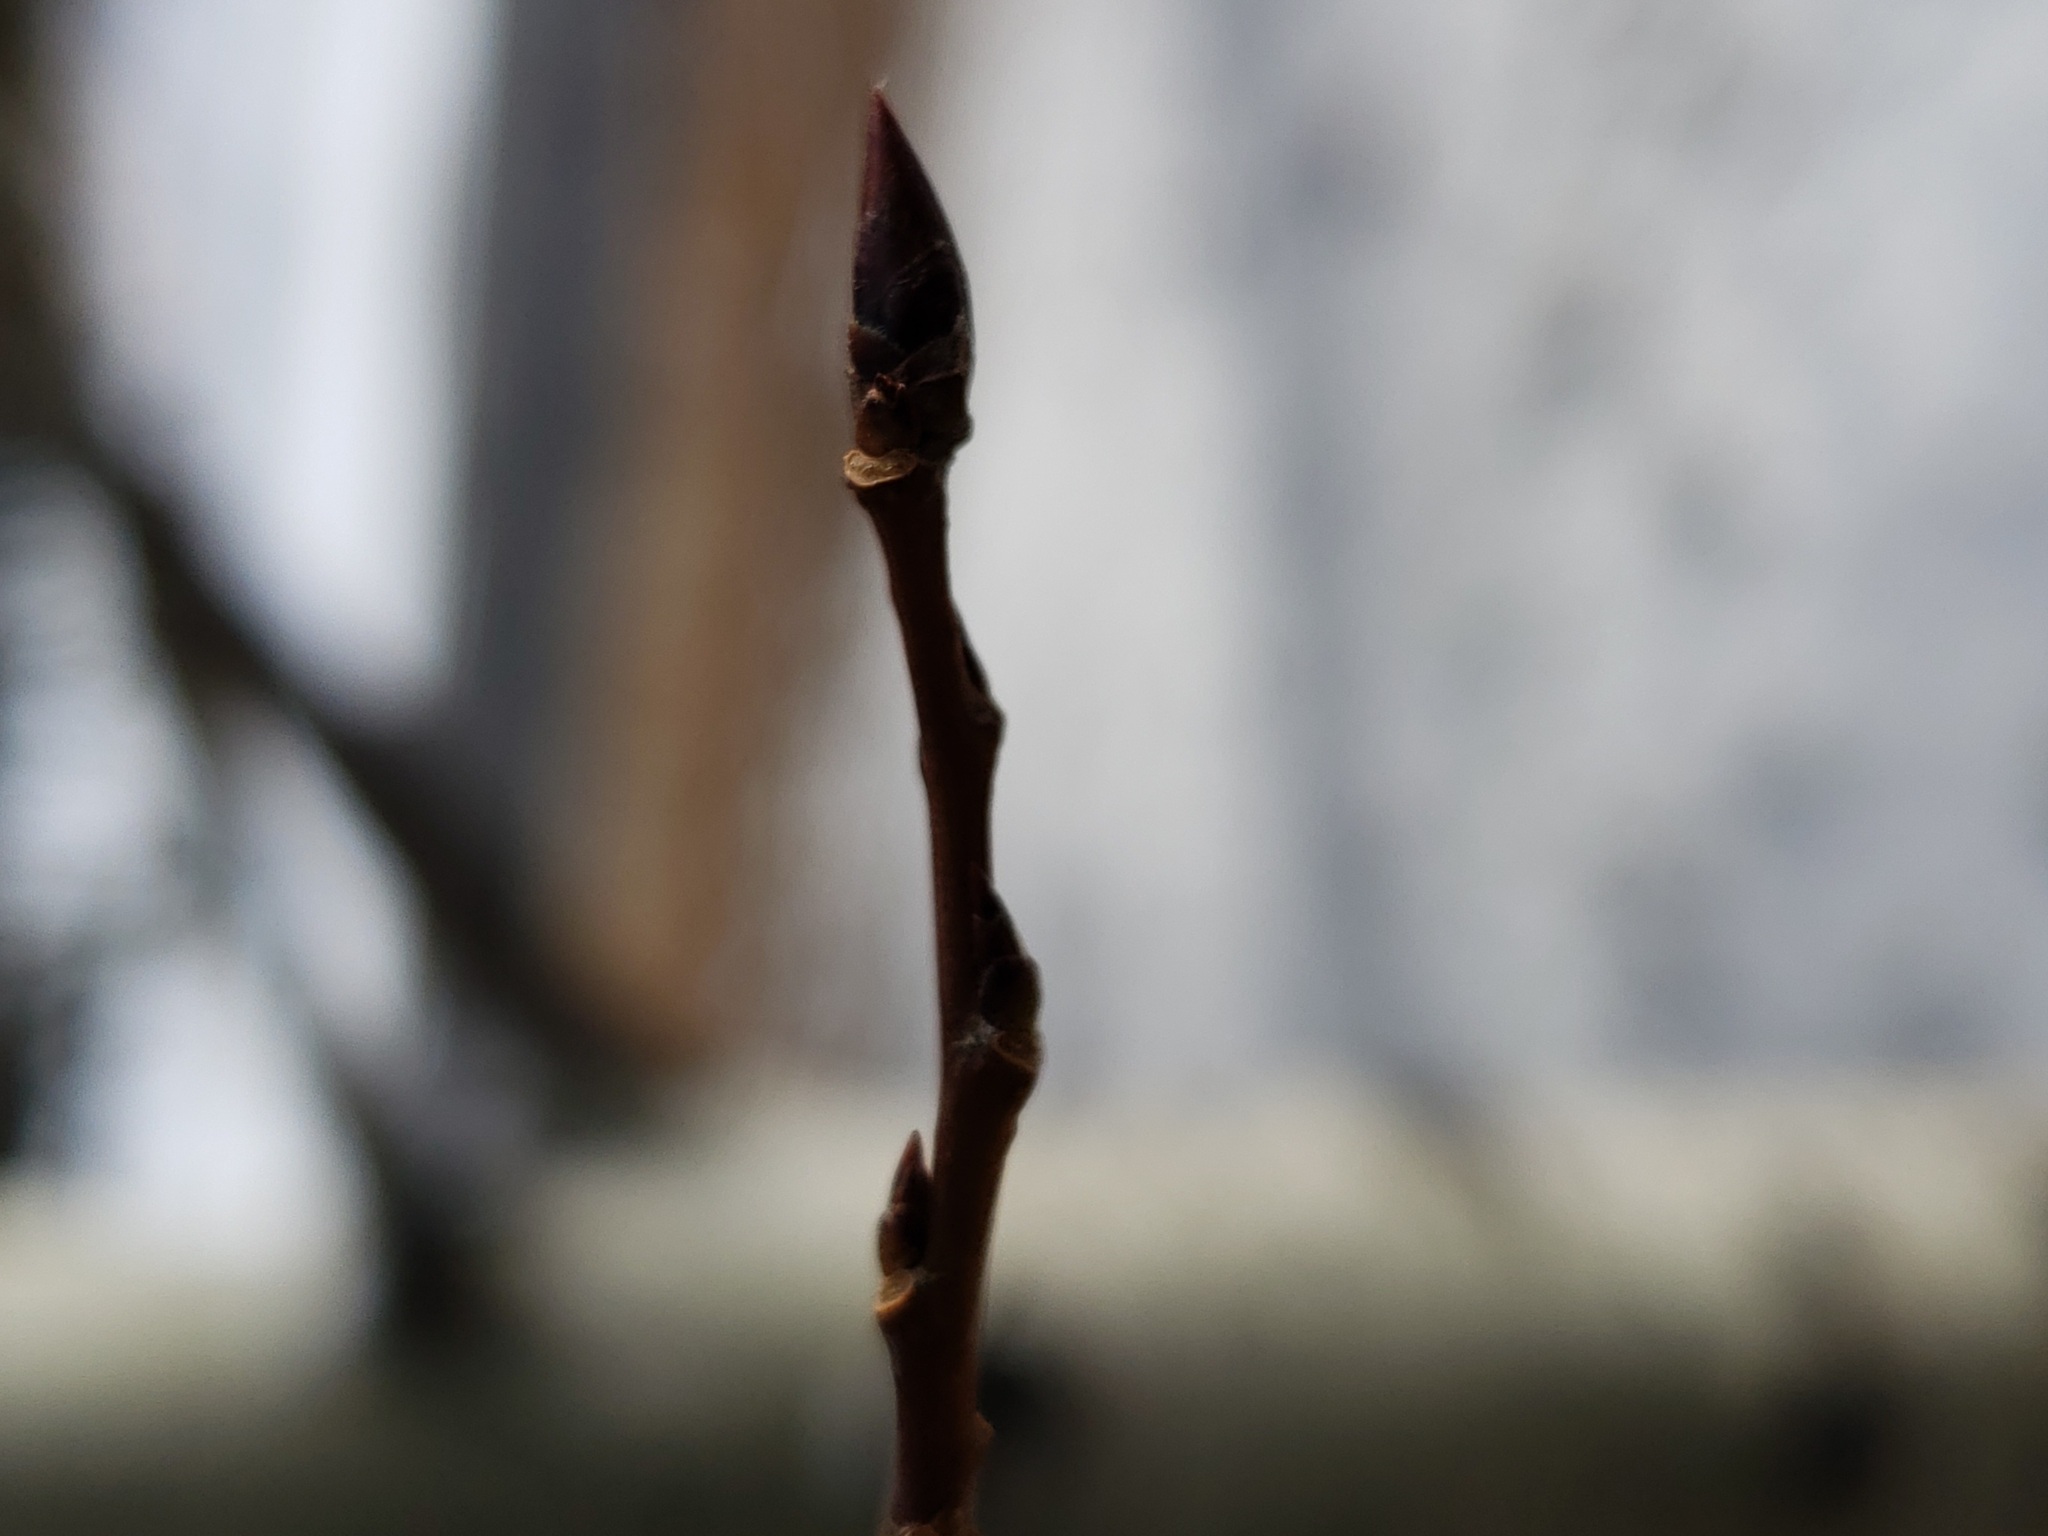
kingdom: Plantae
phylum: Tracheophyta
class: Magnoliopsida
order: Malpighiales
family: Salicaceae
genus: Populus
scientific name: Populus tremuloides
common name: Quaking aspen
